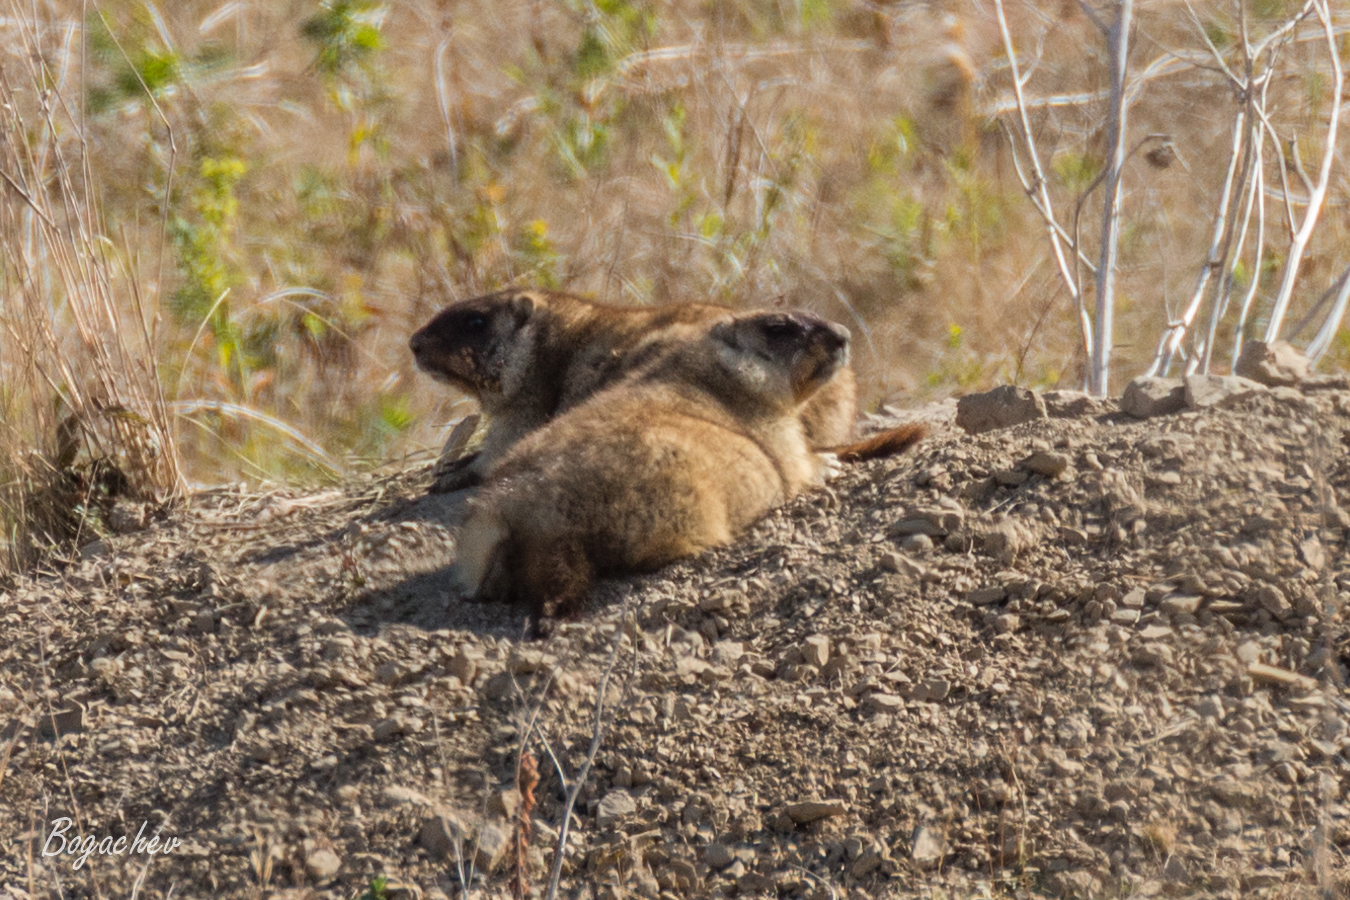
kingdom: Animalia
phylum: Chordata
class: Mammalia
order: Rodentia
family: Sciuridae
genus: Marmota
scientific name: Marmota bobak
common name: Bobak marmot
